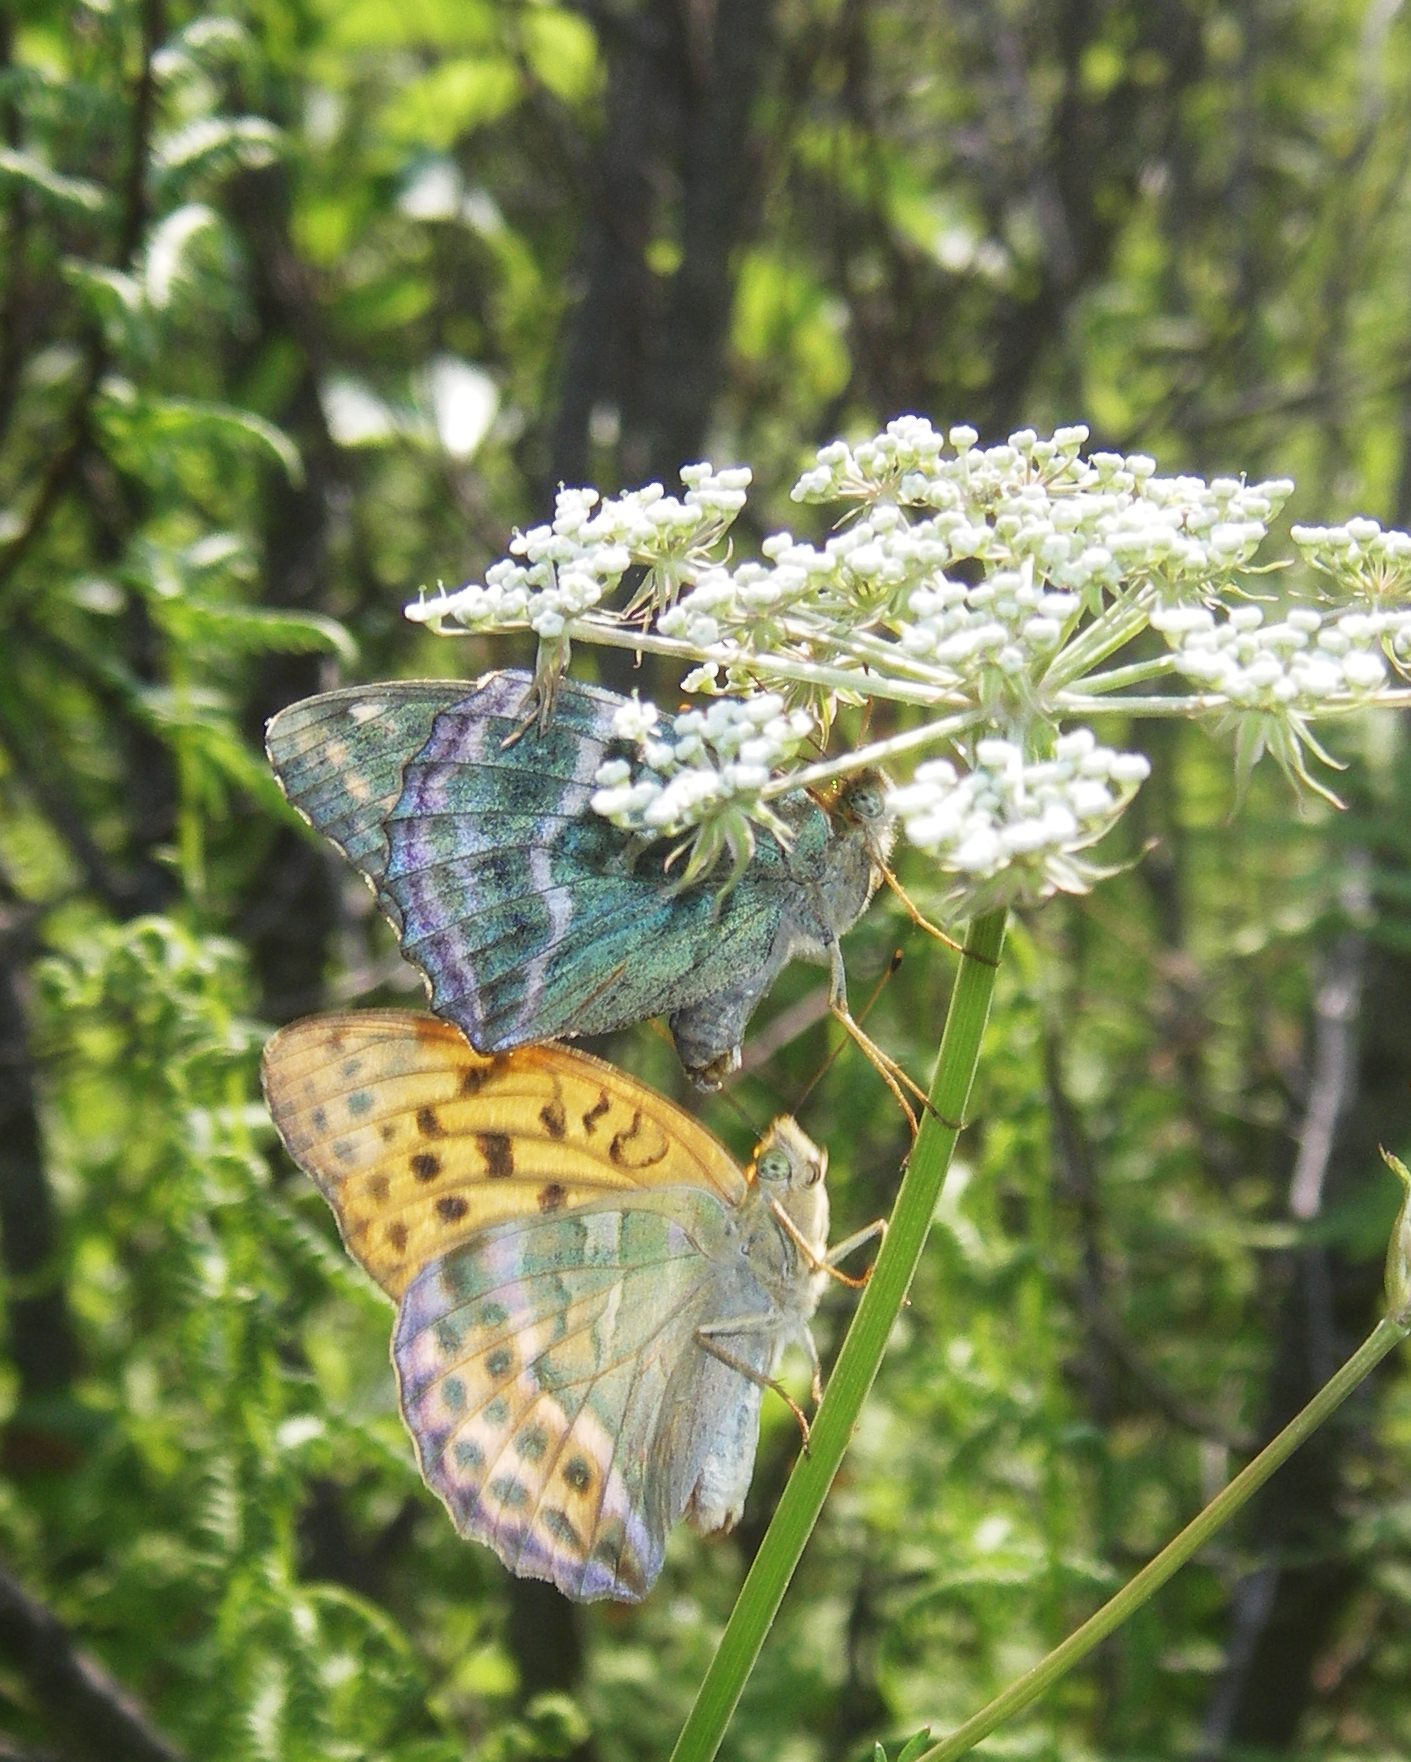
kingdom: Animalia
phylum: Arthropoda
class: Insecta
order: Lepidoptera
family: Nymphalidae
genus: Argynnis
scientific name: Argynnis paphia
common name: Silver-washed fritillary
